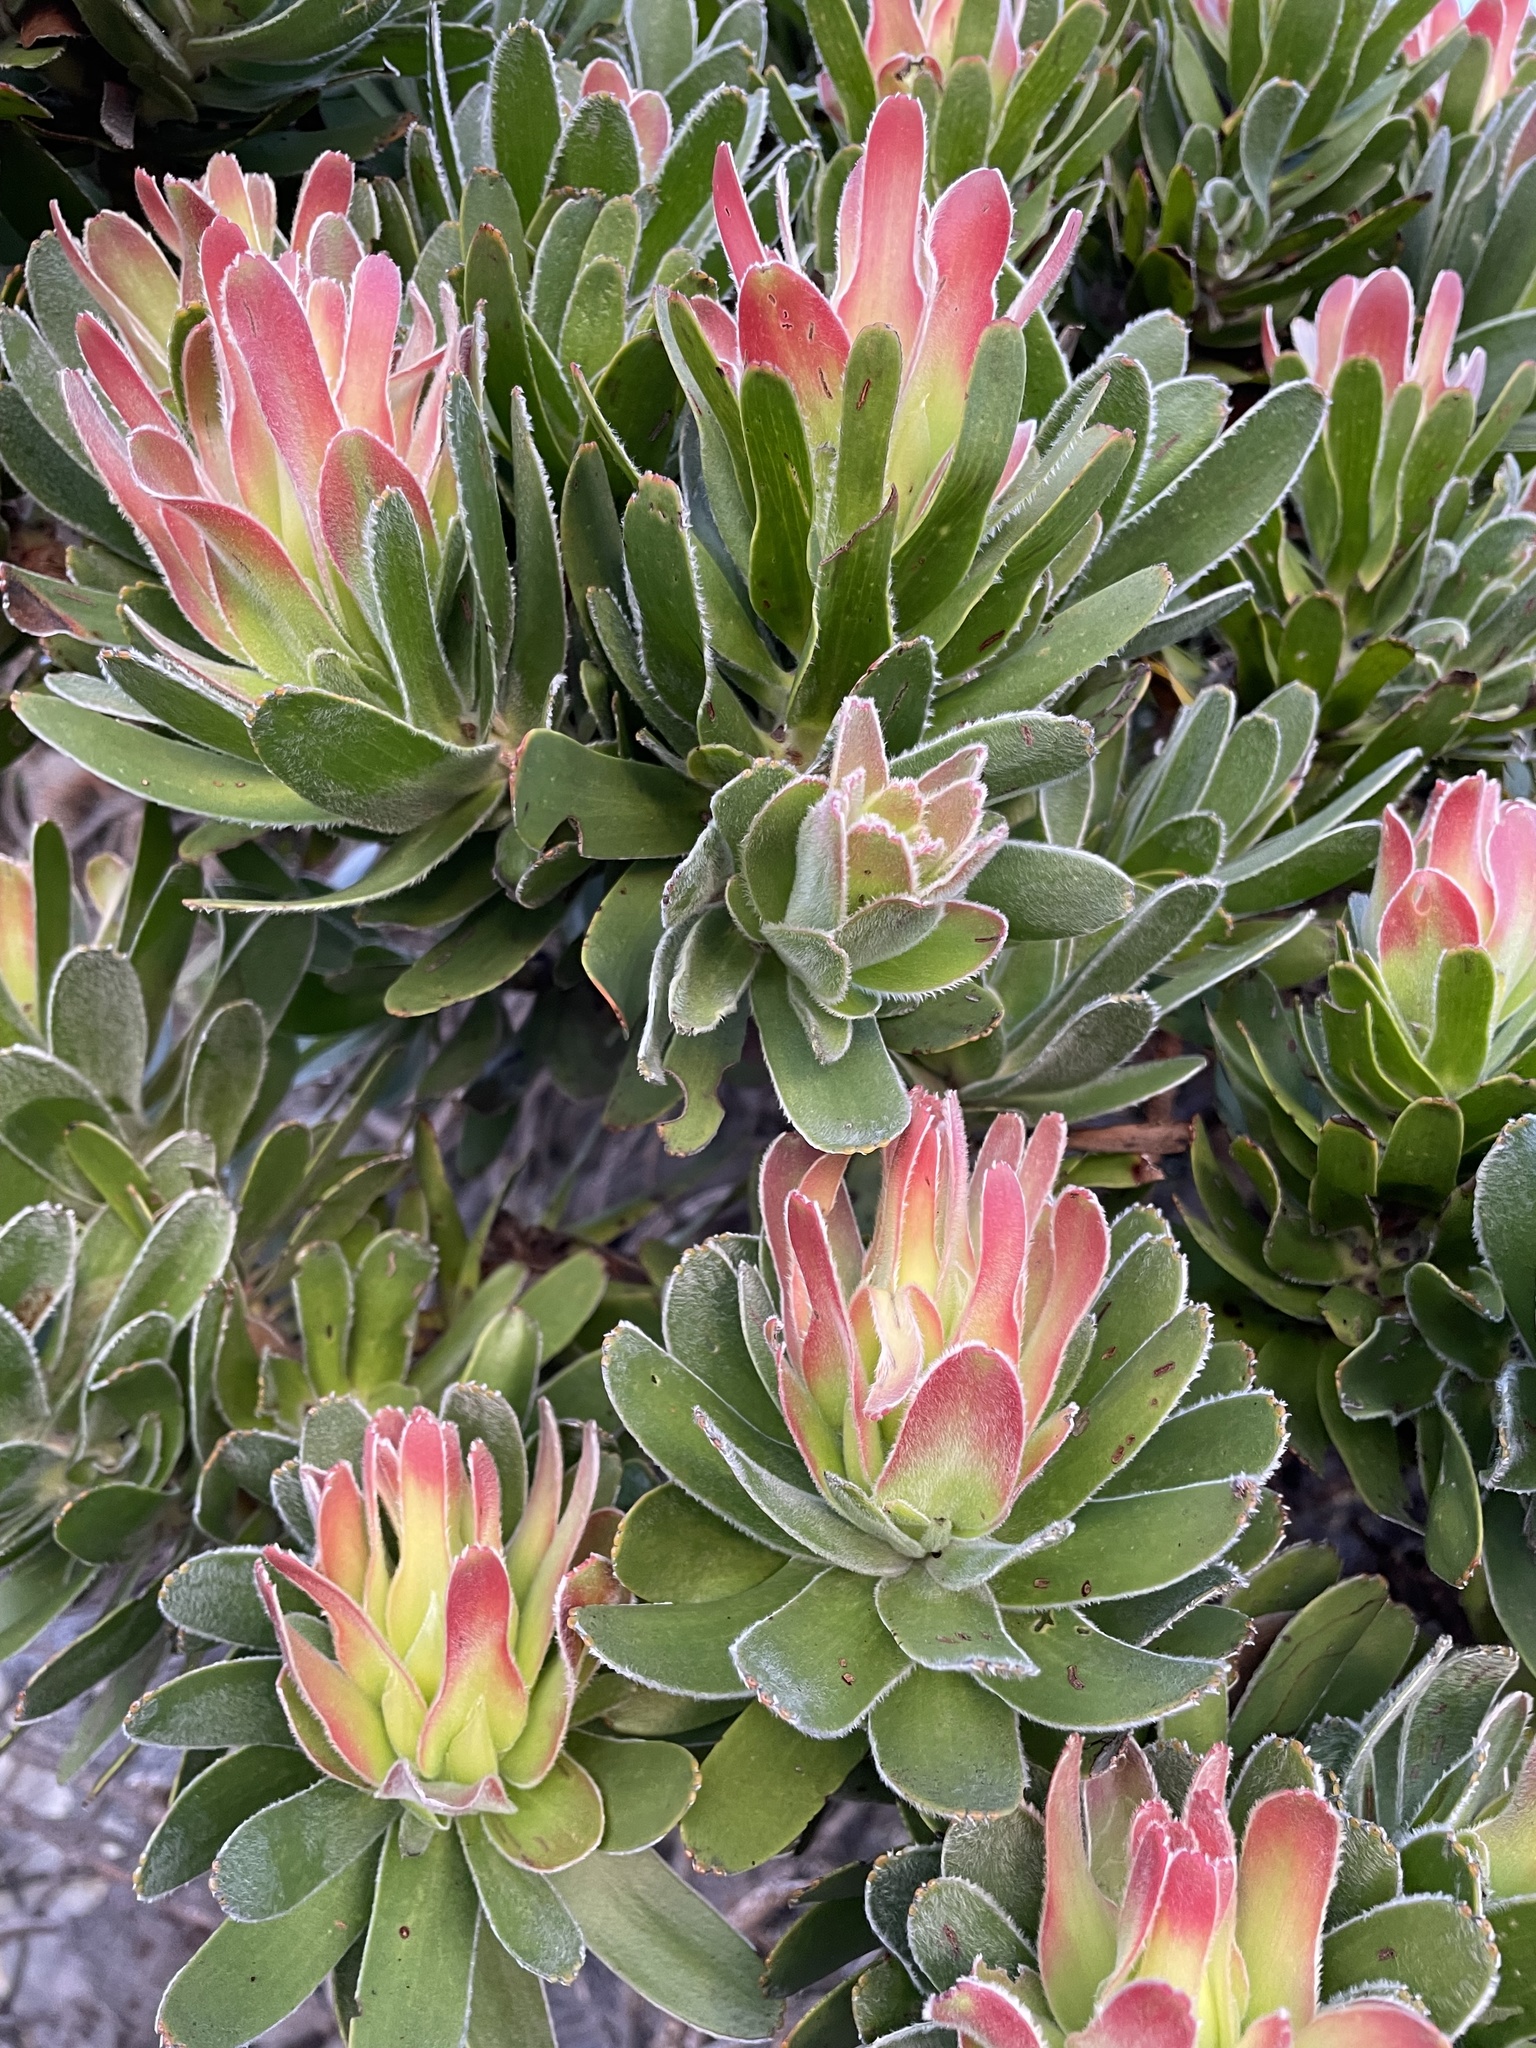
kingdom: Plantae
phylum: Tracheophyta
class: Magnoliopsida
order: Proteales
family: Proteaceae
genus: Mimetes
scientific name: Mimetes fimbriifolius
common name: Fringed bottlebrush
